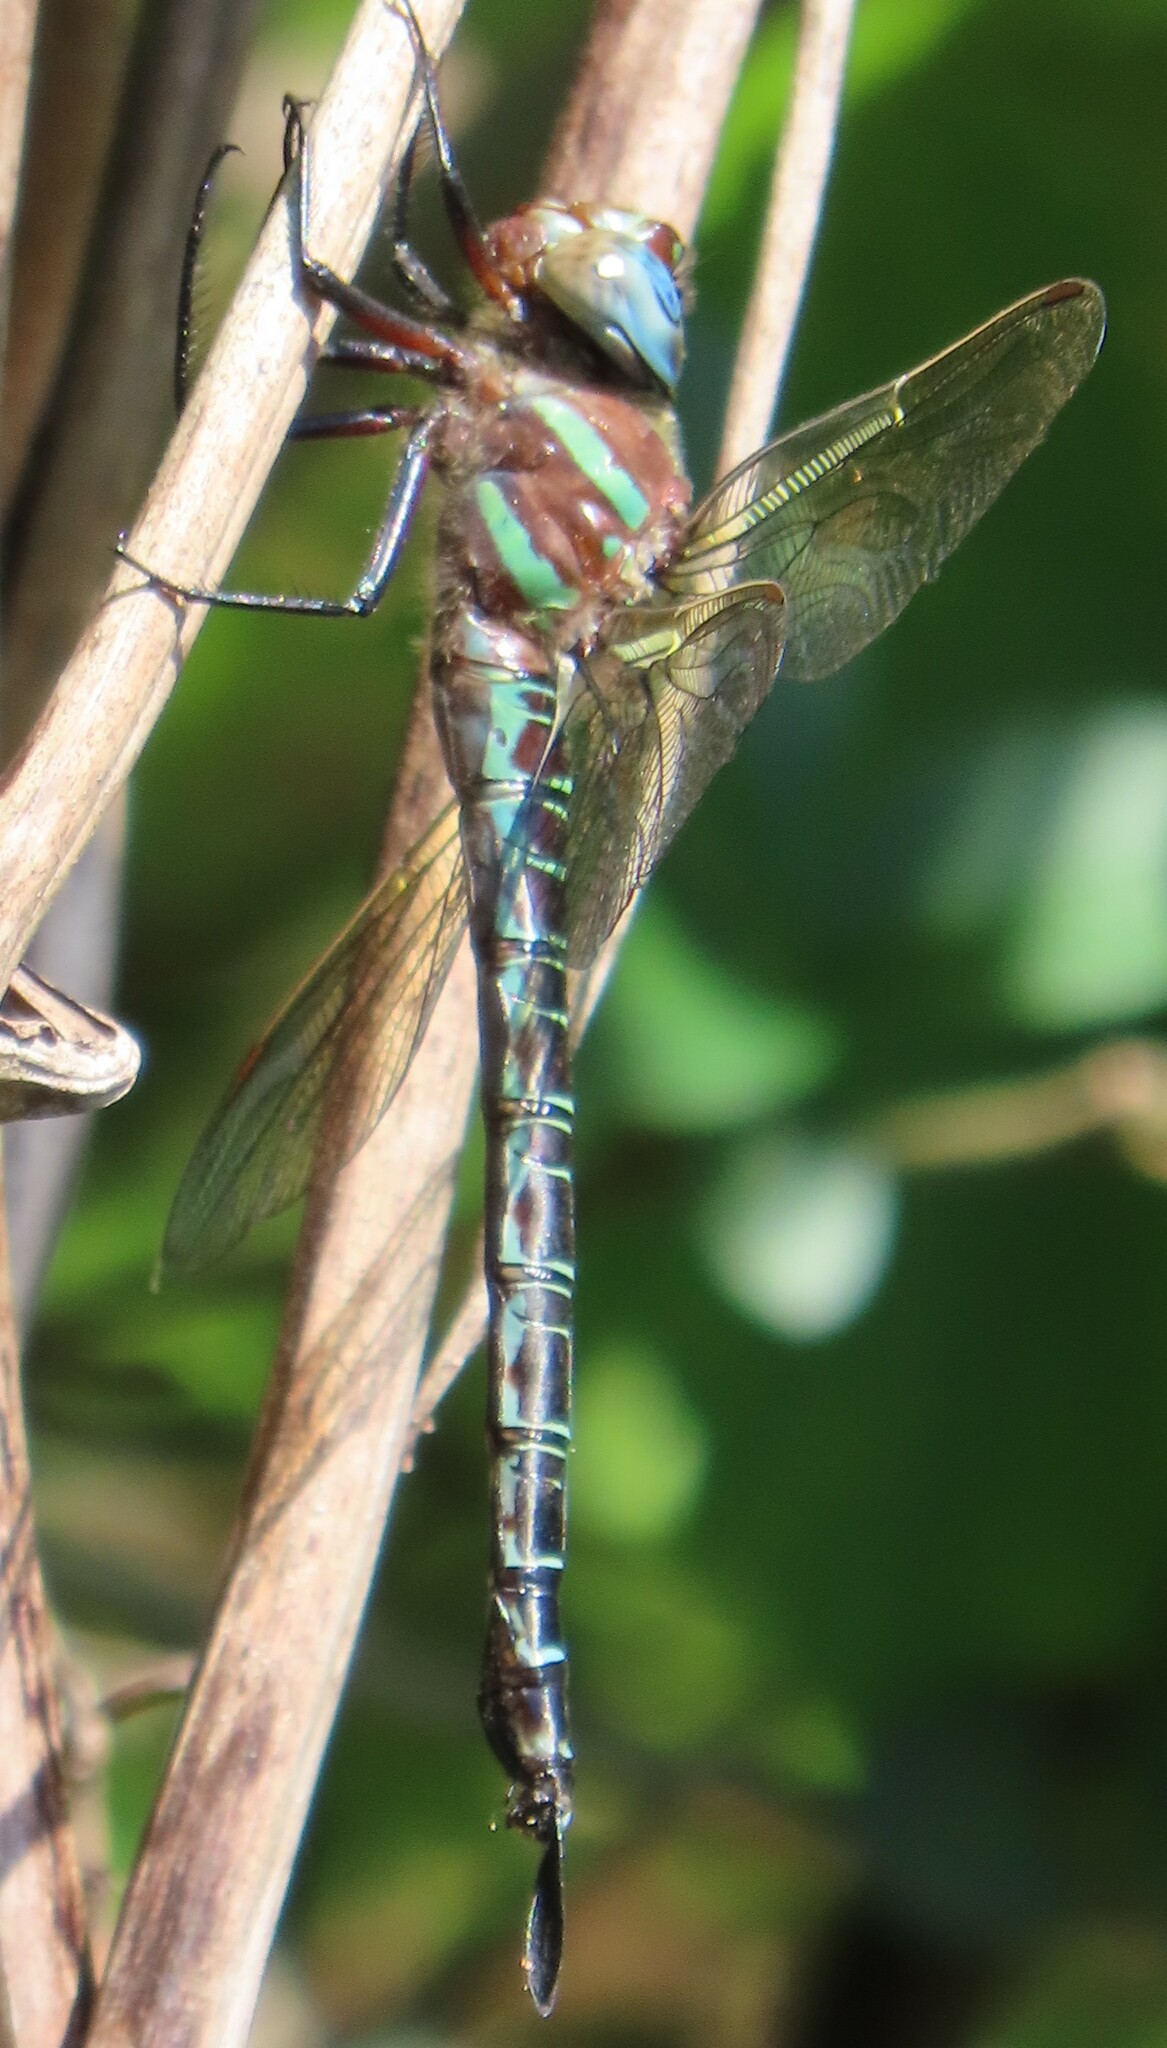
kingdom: Animalia
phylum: Arthropoda
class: Insecta
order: Odonata
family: Aeshnidae
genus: Epiaeschna
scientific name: Epiaeschna heros
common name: Swamp darner
